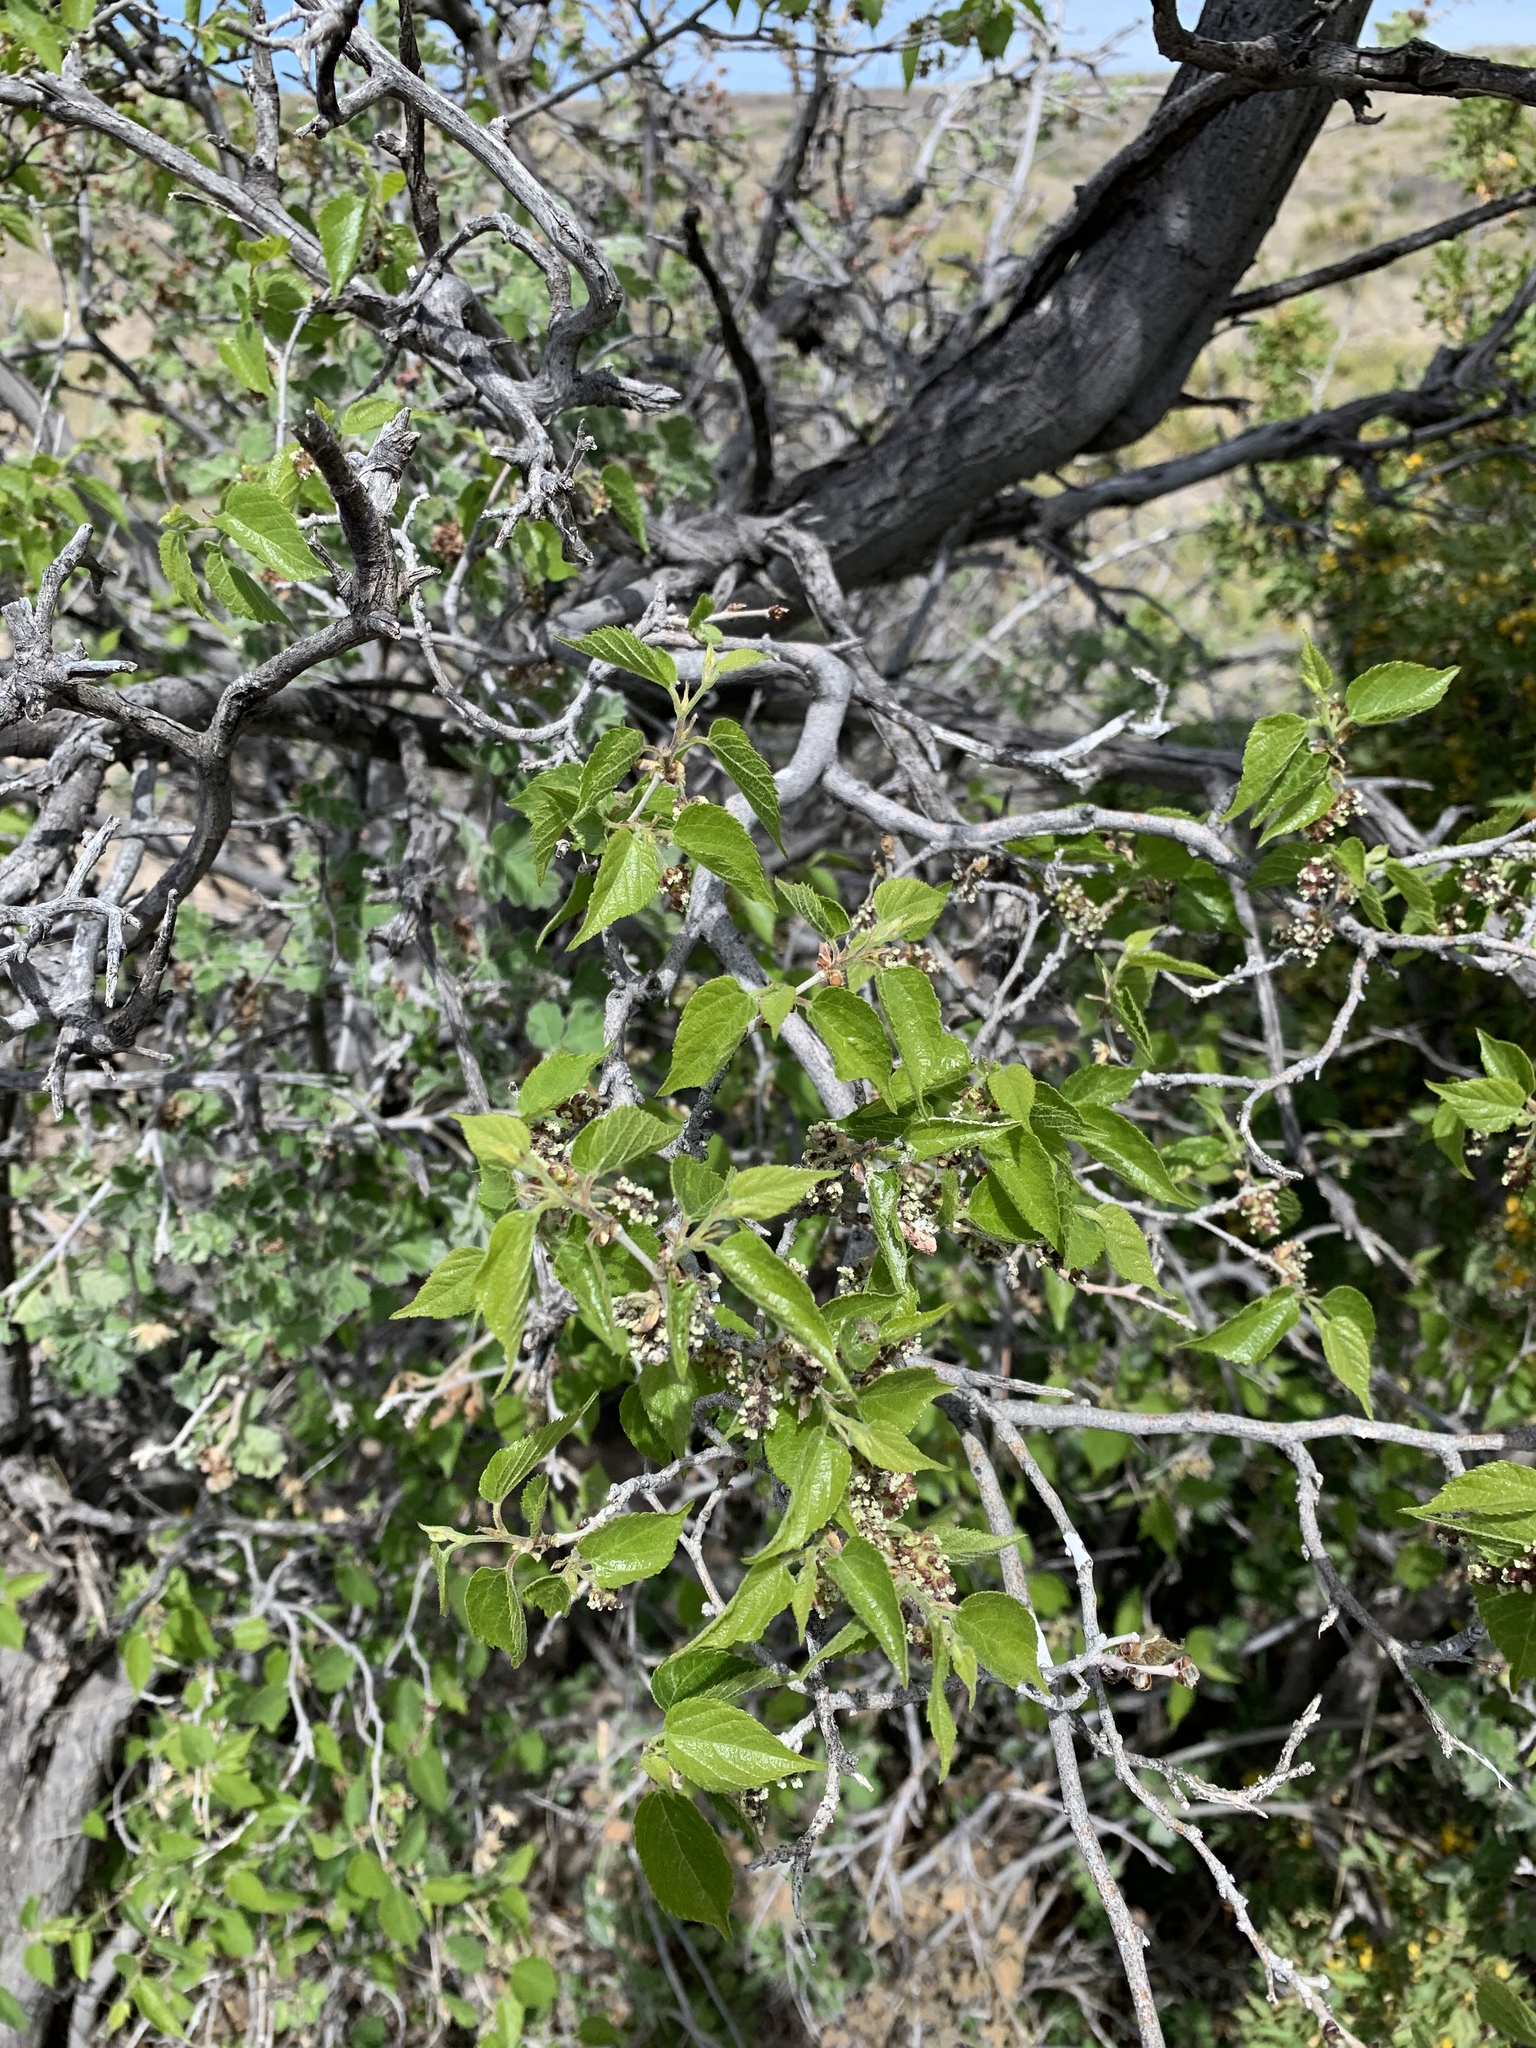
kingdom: Plantae
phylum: Tracheophyta
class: Magnoliopsida
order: Rosales
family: Cannabaceae
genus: Celtis
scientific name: Celtis reticulata
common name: Netleaf hackberry
